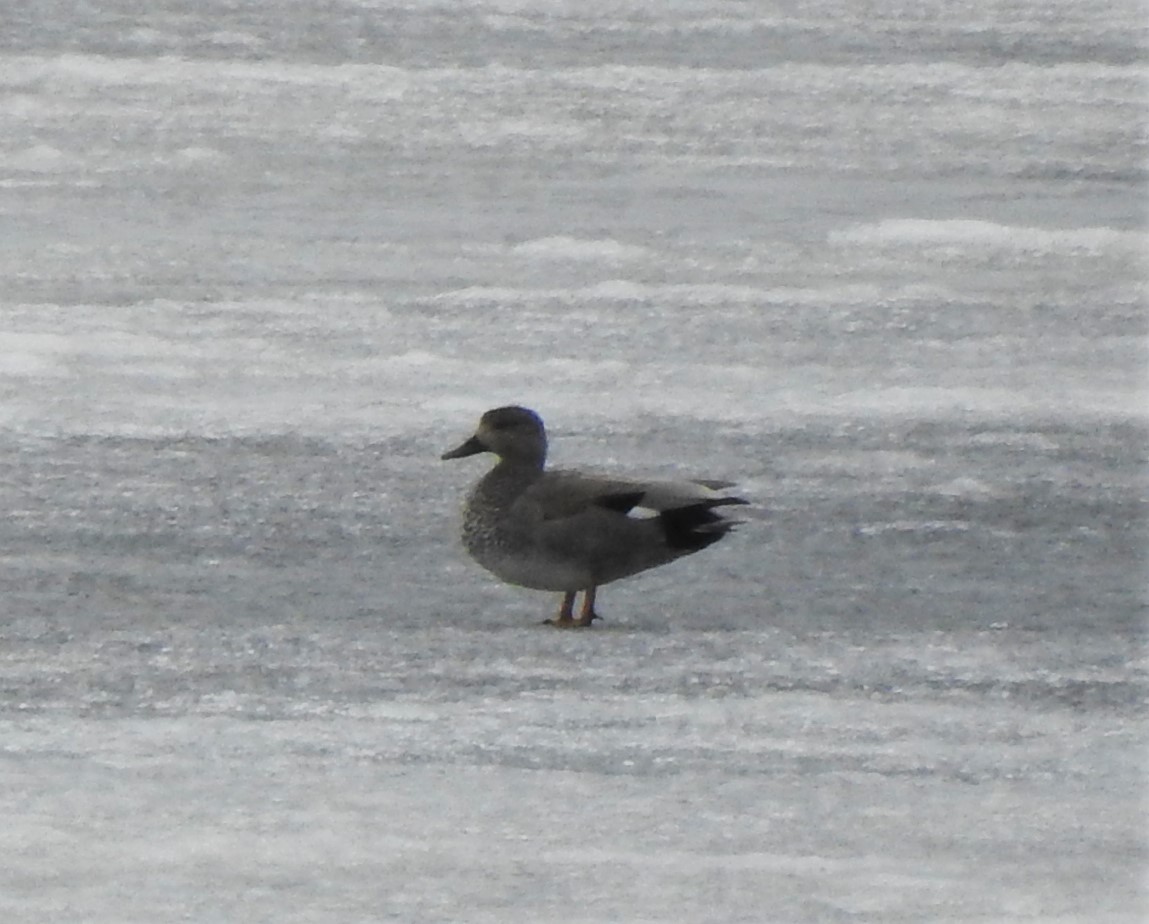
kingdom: Animalia
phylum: Chordata
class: Aves
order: Anseriformes
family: Anatidae
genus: Mareca
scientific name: Mareca strepera
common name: Gadwall
